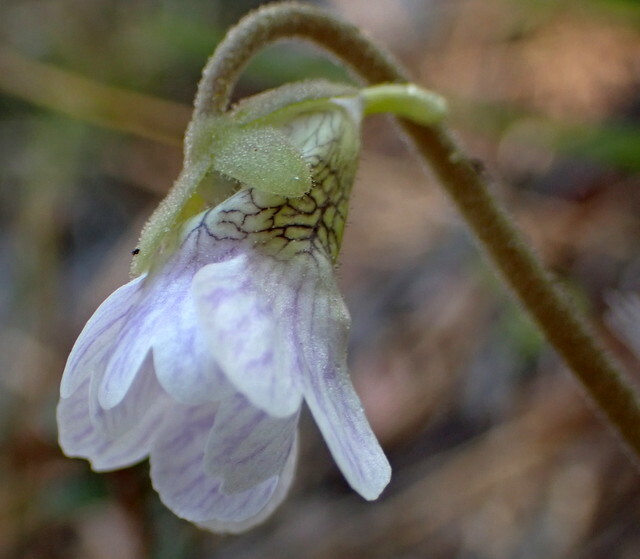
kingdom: Plantae
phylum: Tracheophyta
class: Magnoliopsida
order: Lamiales
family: Lentibulariaceae
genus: Pinguicula
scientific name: Pinguicula caerulea
